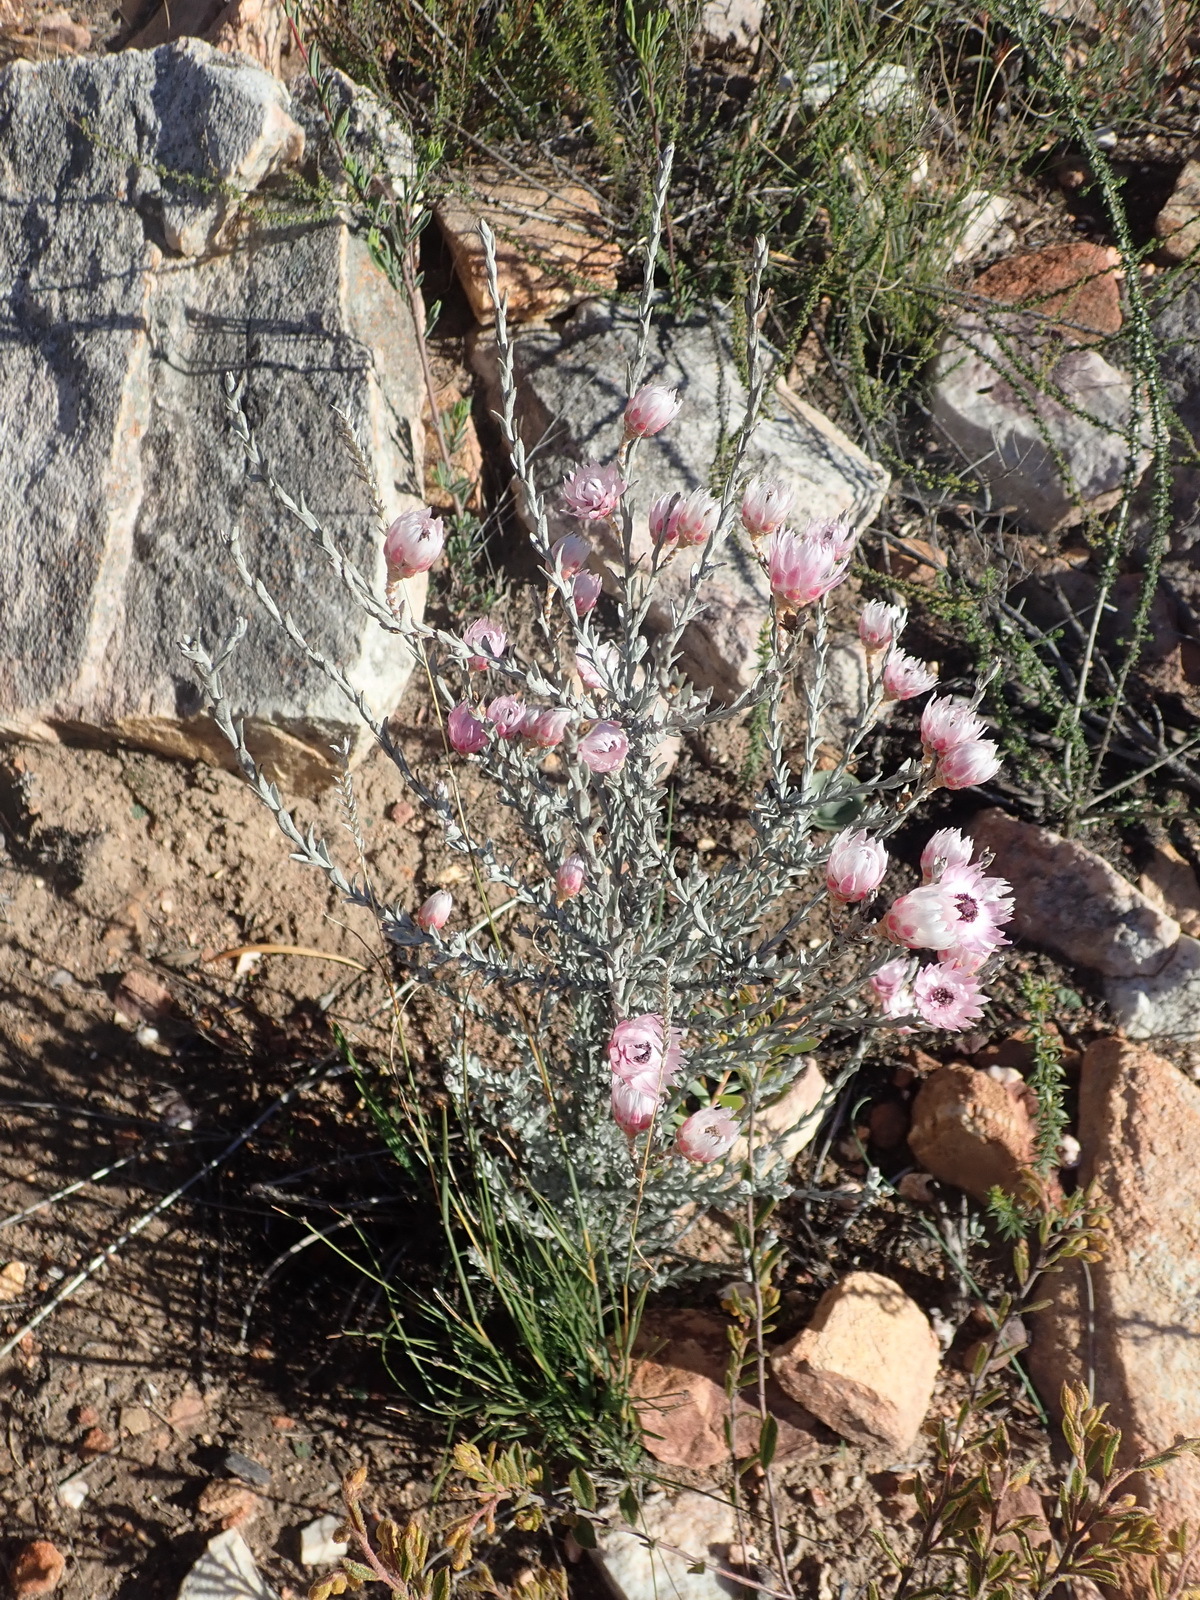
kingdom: Plantae
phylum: Tracheophyta
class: Magnoliopsida
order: Asterales
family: Asteraceae
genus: Syncarpha
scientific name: Syncarpha canescens
